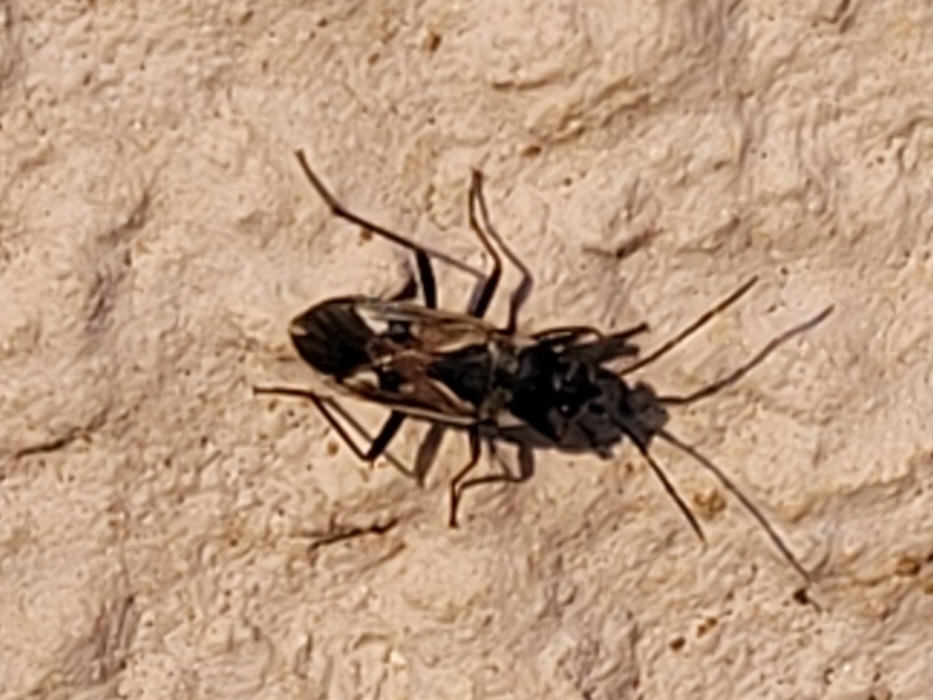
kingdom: Animalia
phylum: Arthropoda
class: Insecta
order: Hemiptera
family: Rhyparochromidae
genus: Rhyparochromus
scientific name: Rhyparochromus vulgaris
